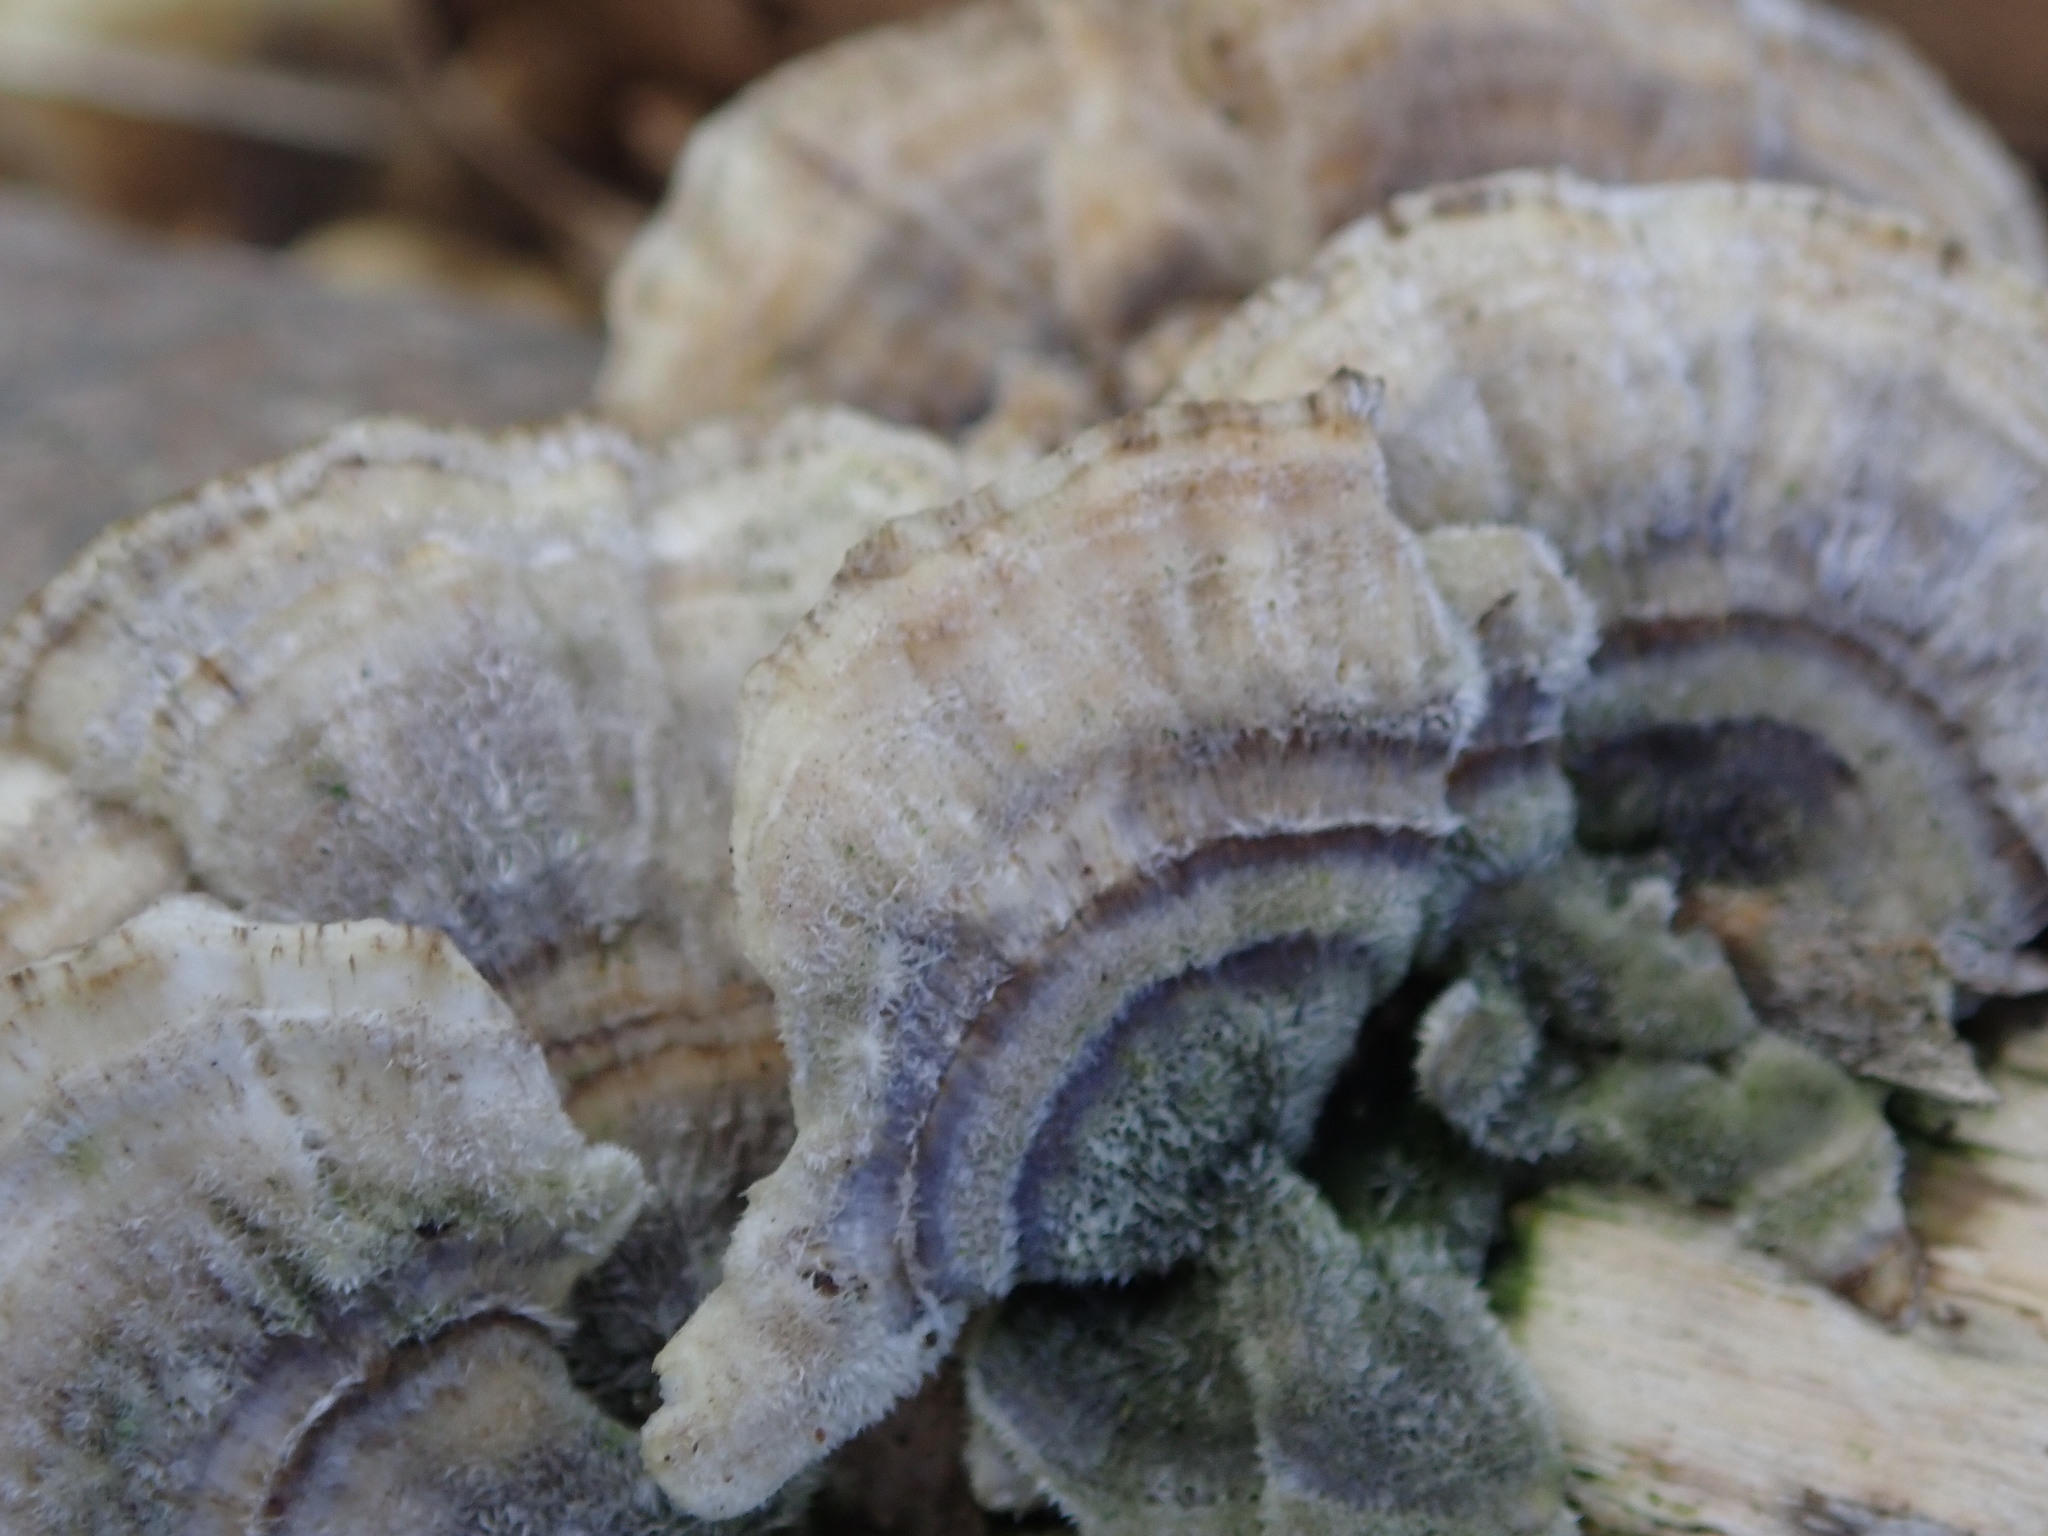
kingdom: Fungi
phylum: Basidiomycota
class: Agaricomycetes
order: Polyporales
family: Polyporaceae
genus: Trametes
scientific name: Trametes versicolor
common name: Turkeytail
